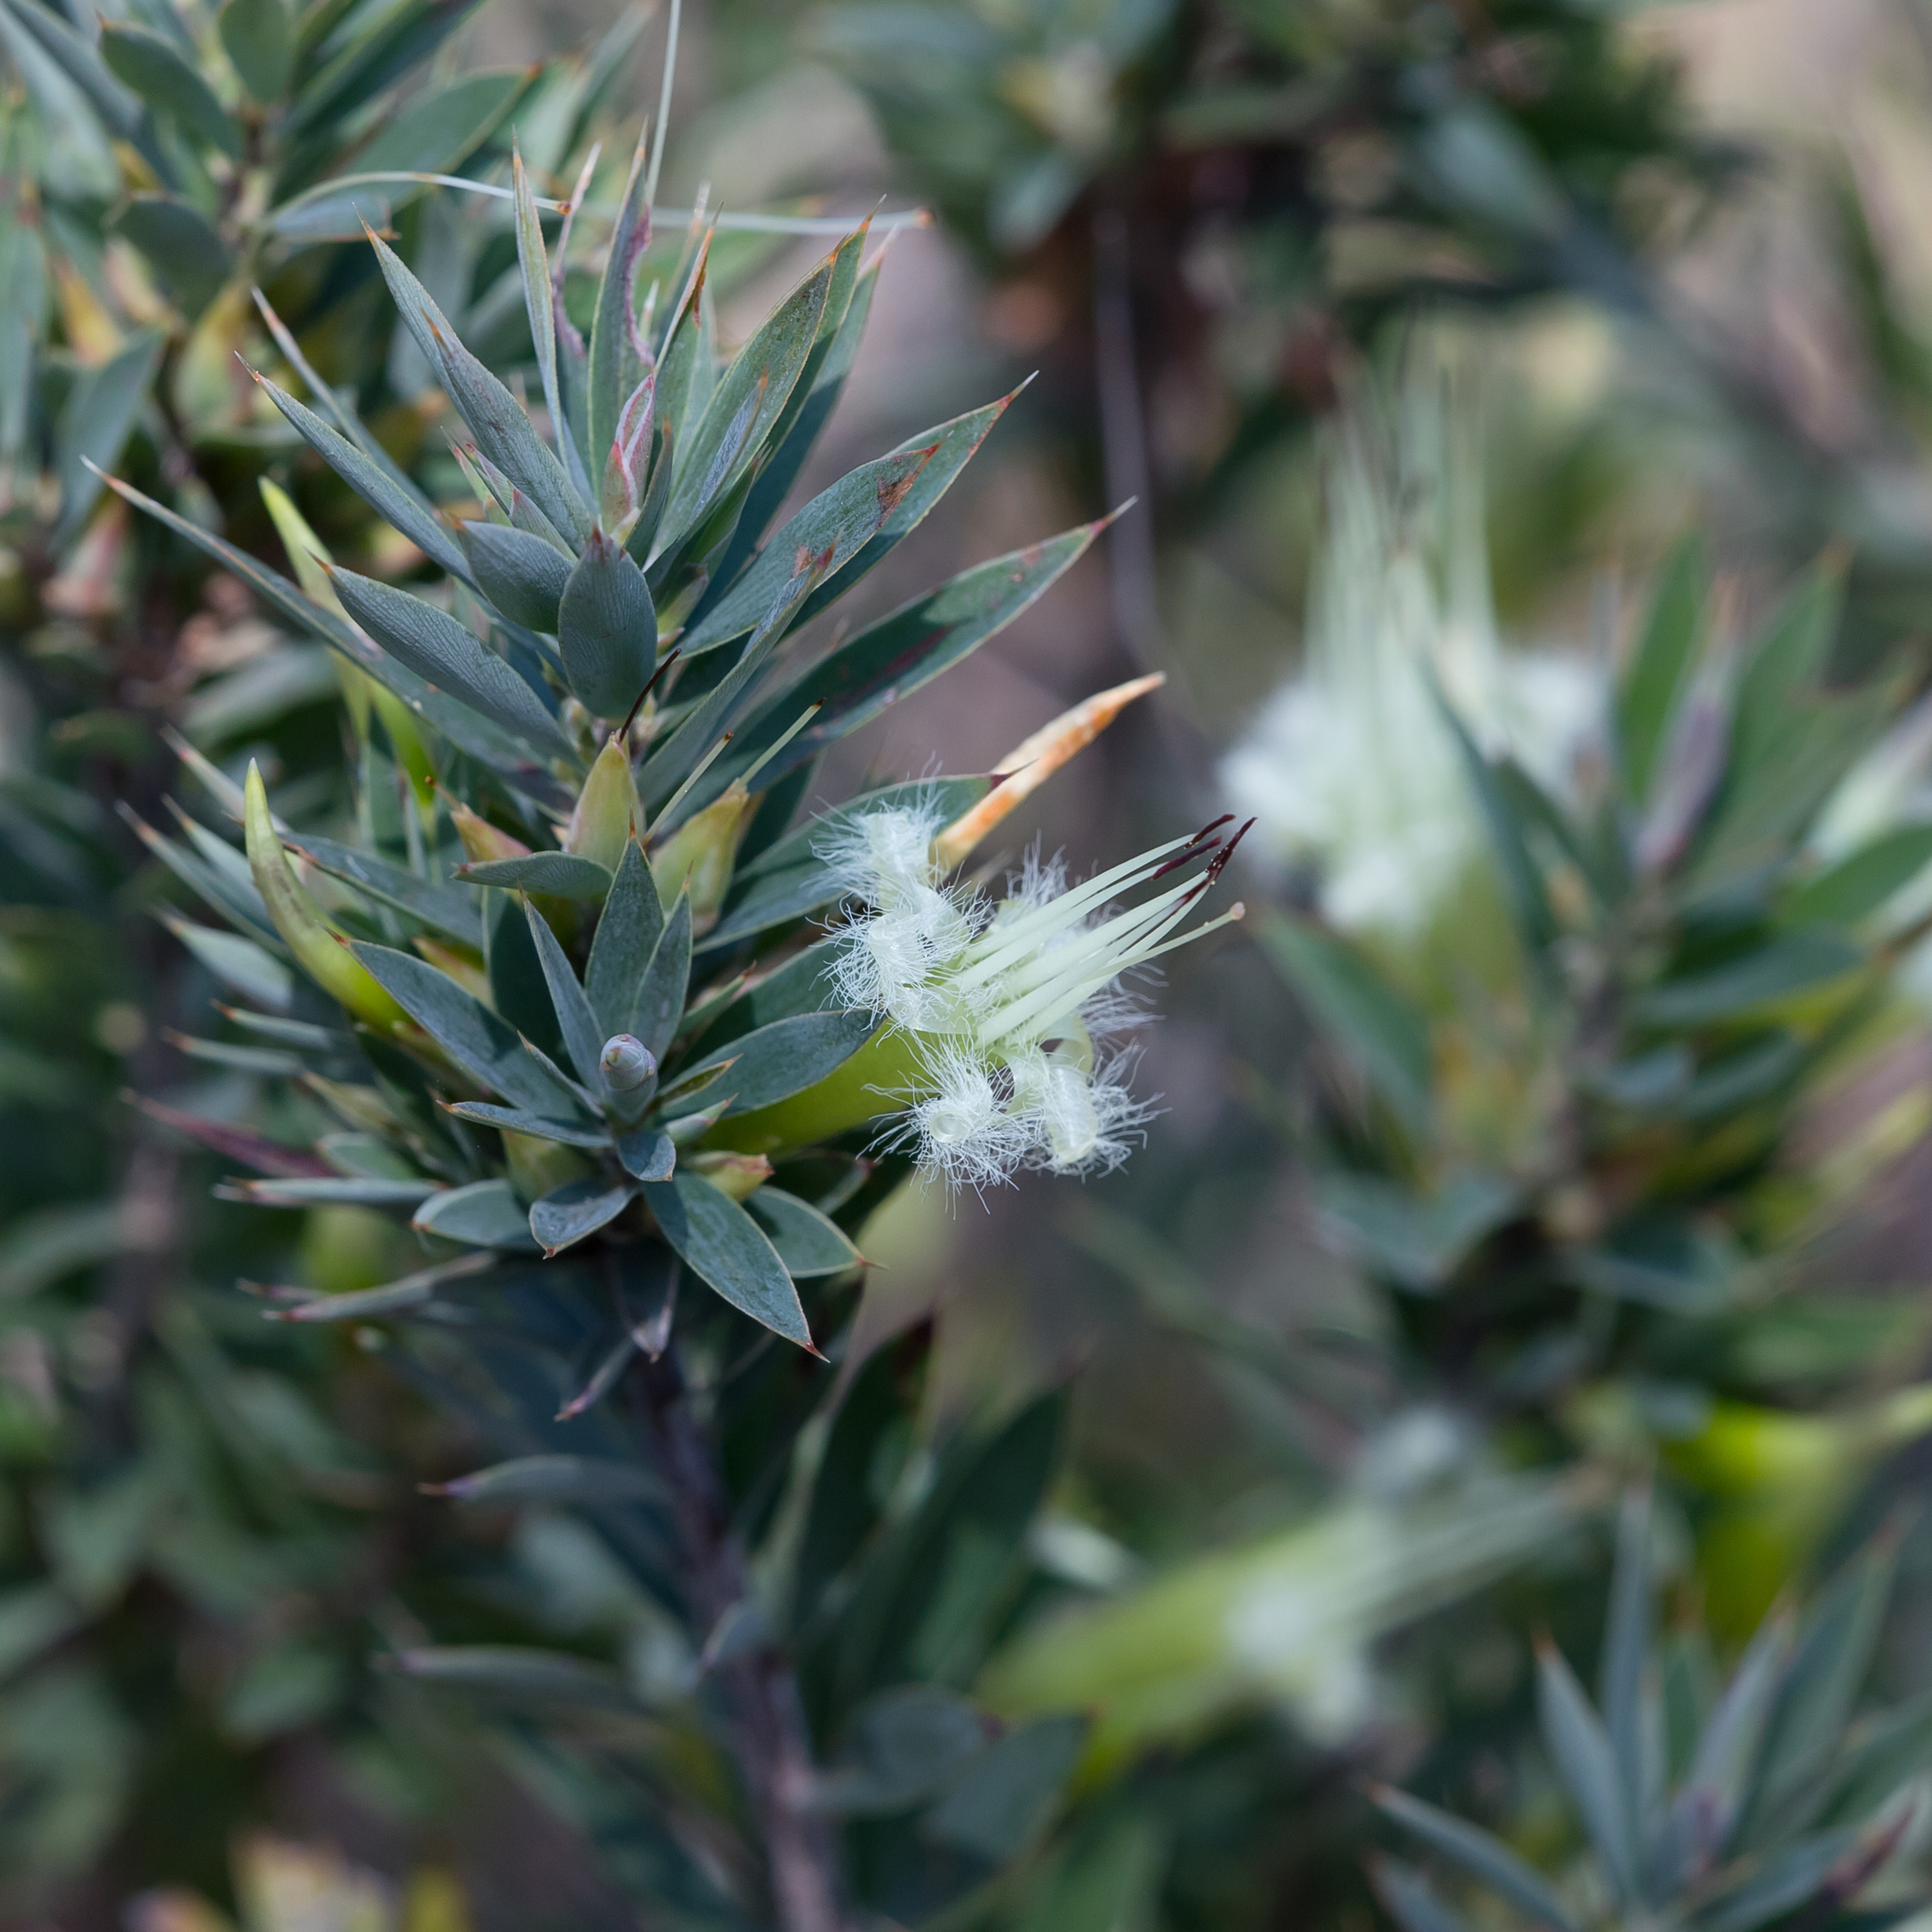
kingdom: Plantae
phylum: Tracheophyta
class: Magnoliopsida
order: Ericales
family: Ericaceae
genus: Styphelia
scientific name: Styphelia adscendens
